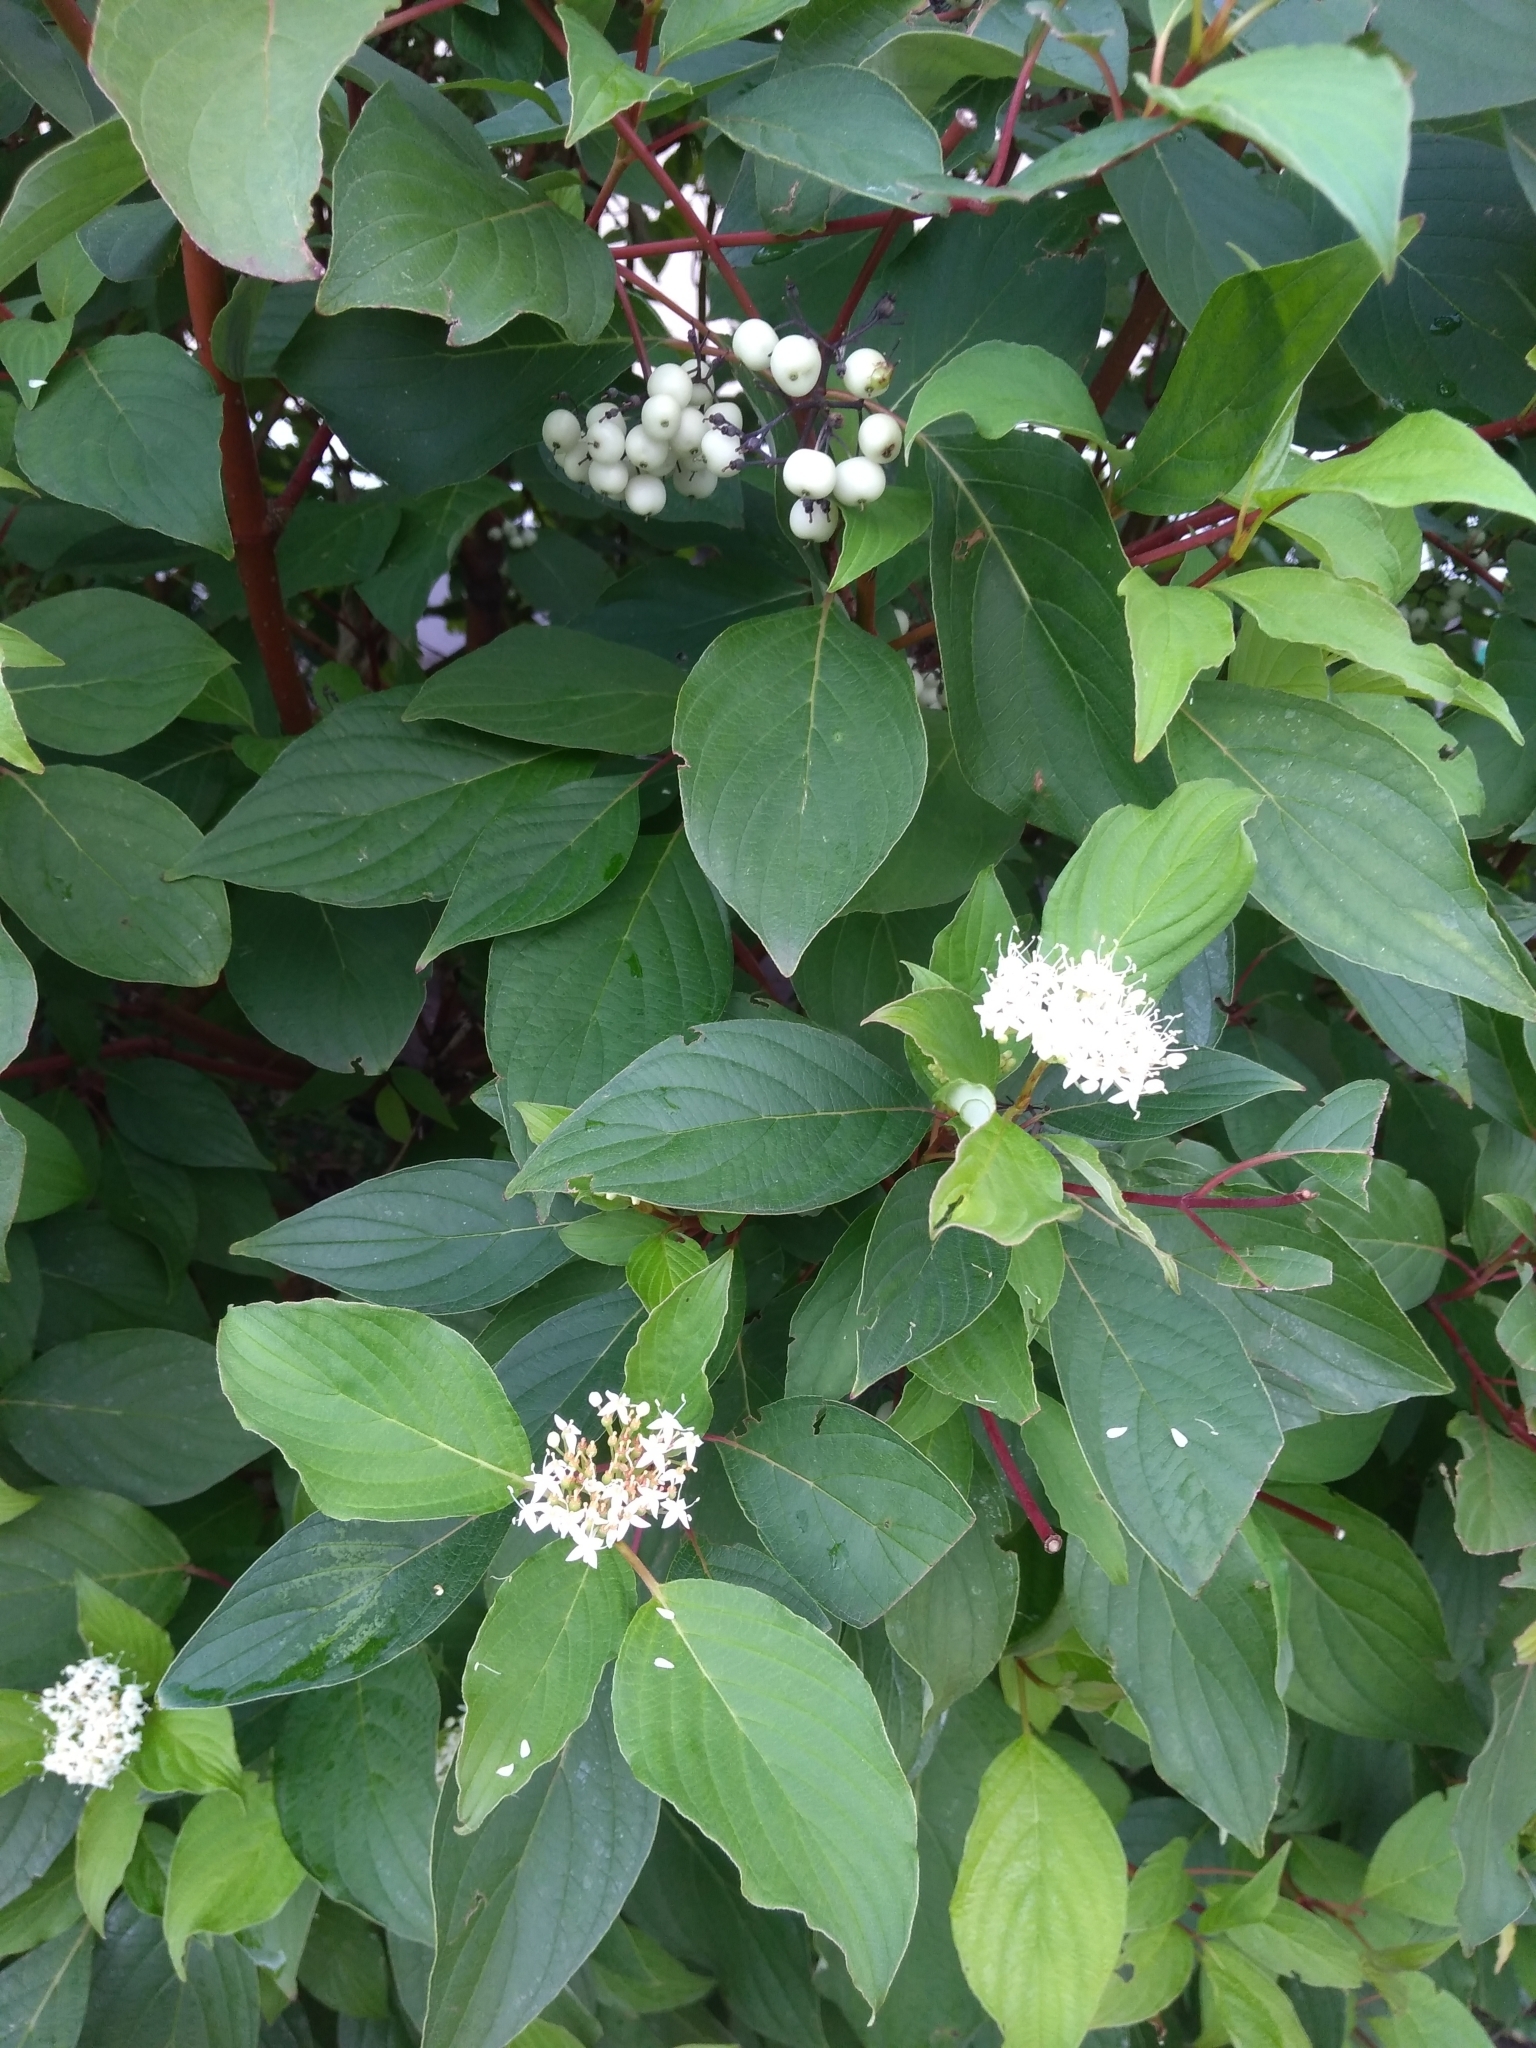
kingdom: Plantae
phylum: Tracheophyta
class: Magnoliopsida
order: Cornales
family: Cornaceae
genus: Cornus
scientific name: Cornus sericea
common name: Red-osier dogwood
